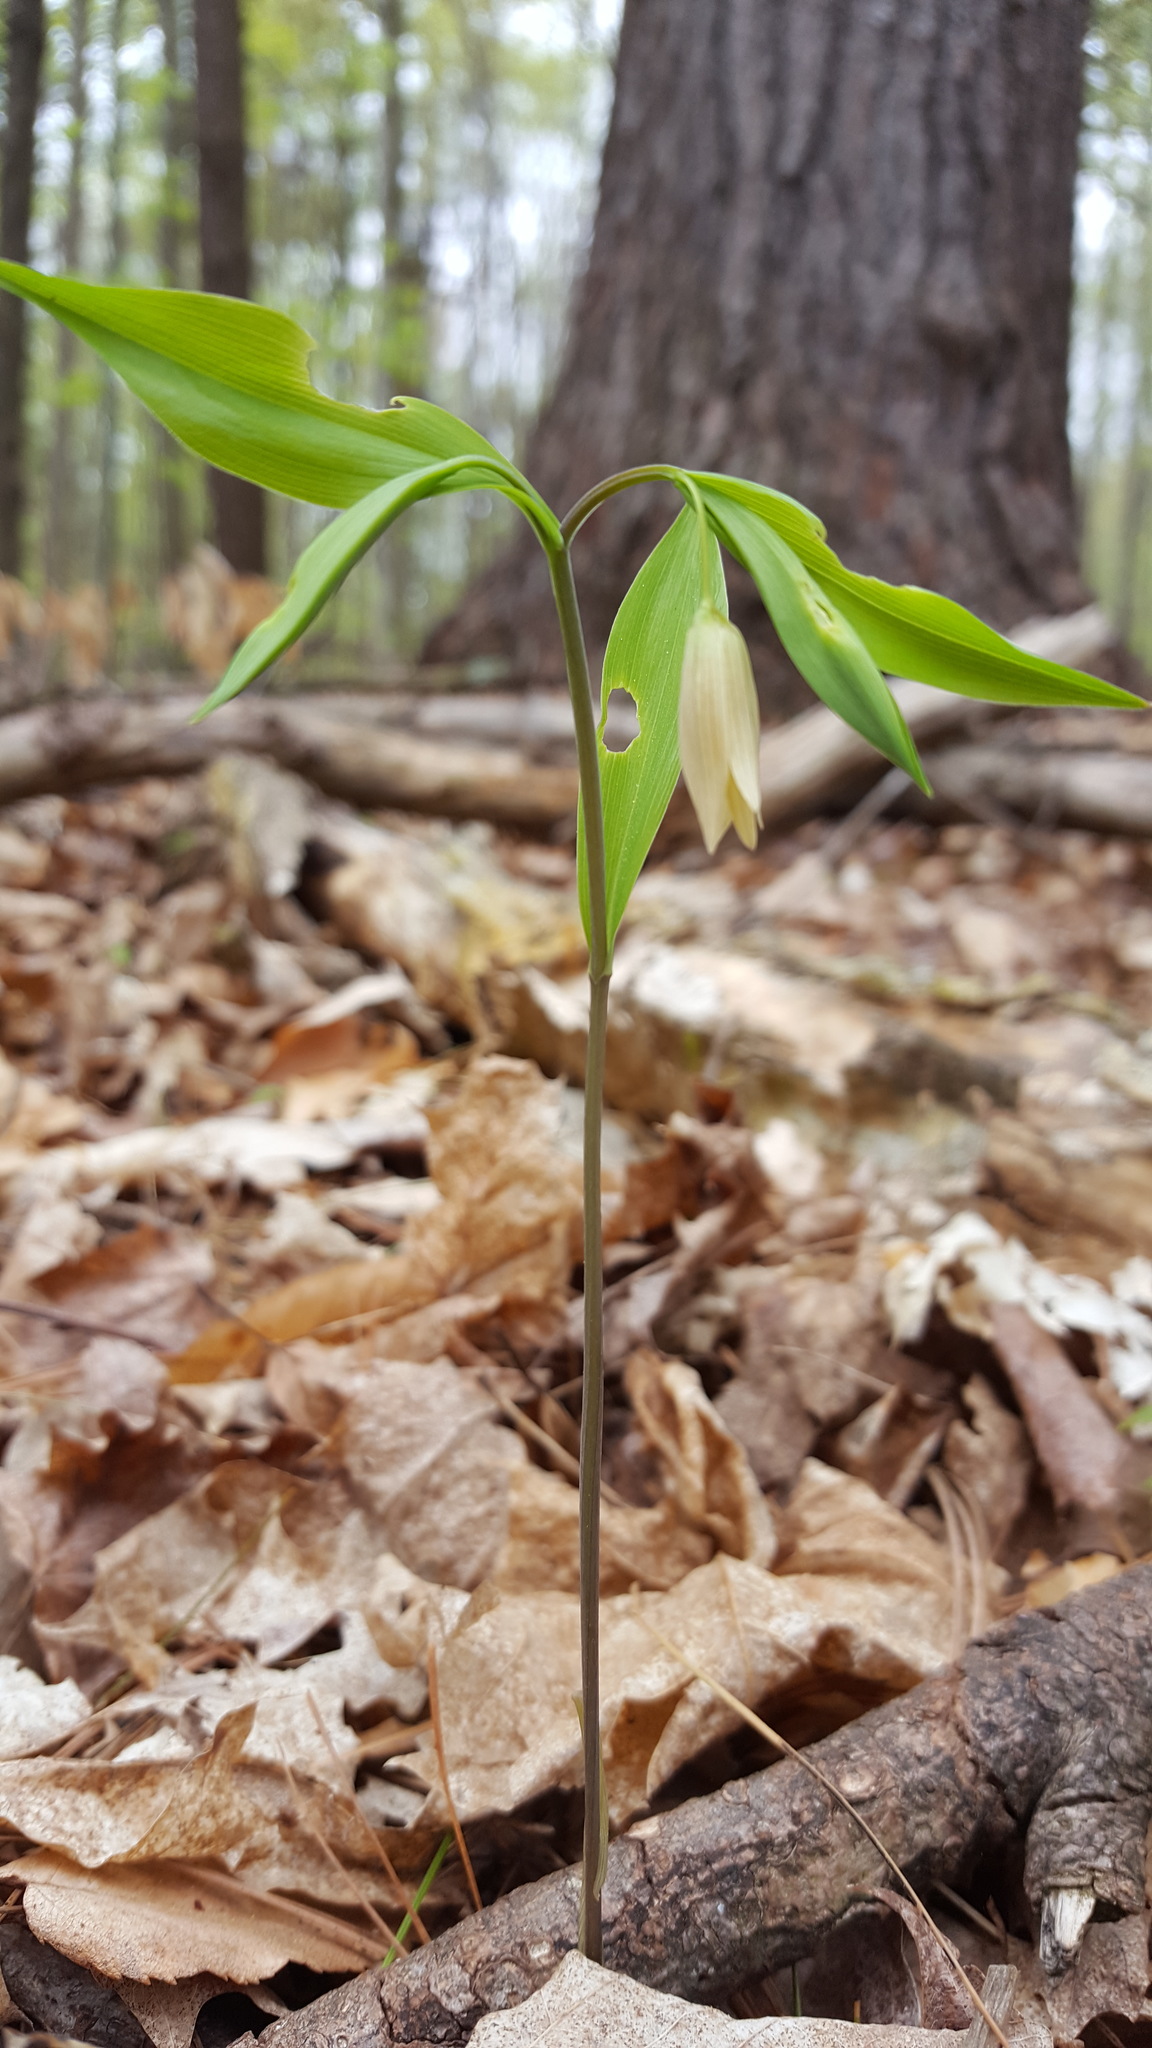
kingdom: Plantae
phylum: Tracheophyta
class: Liliopsida
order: Liliales
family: Colchicaceae
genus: Uvularia
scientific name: Uvularia sessilifolia
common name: Straw-lily
